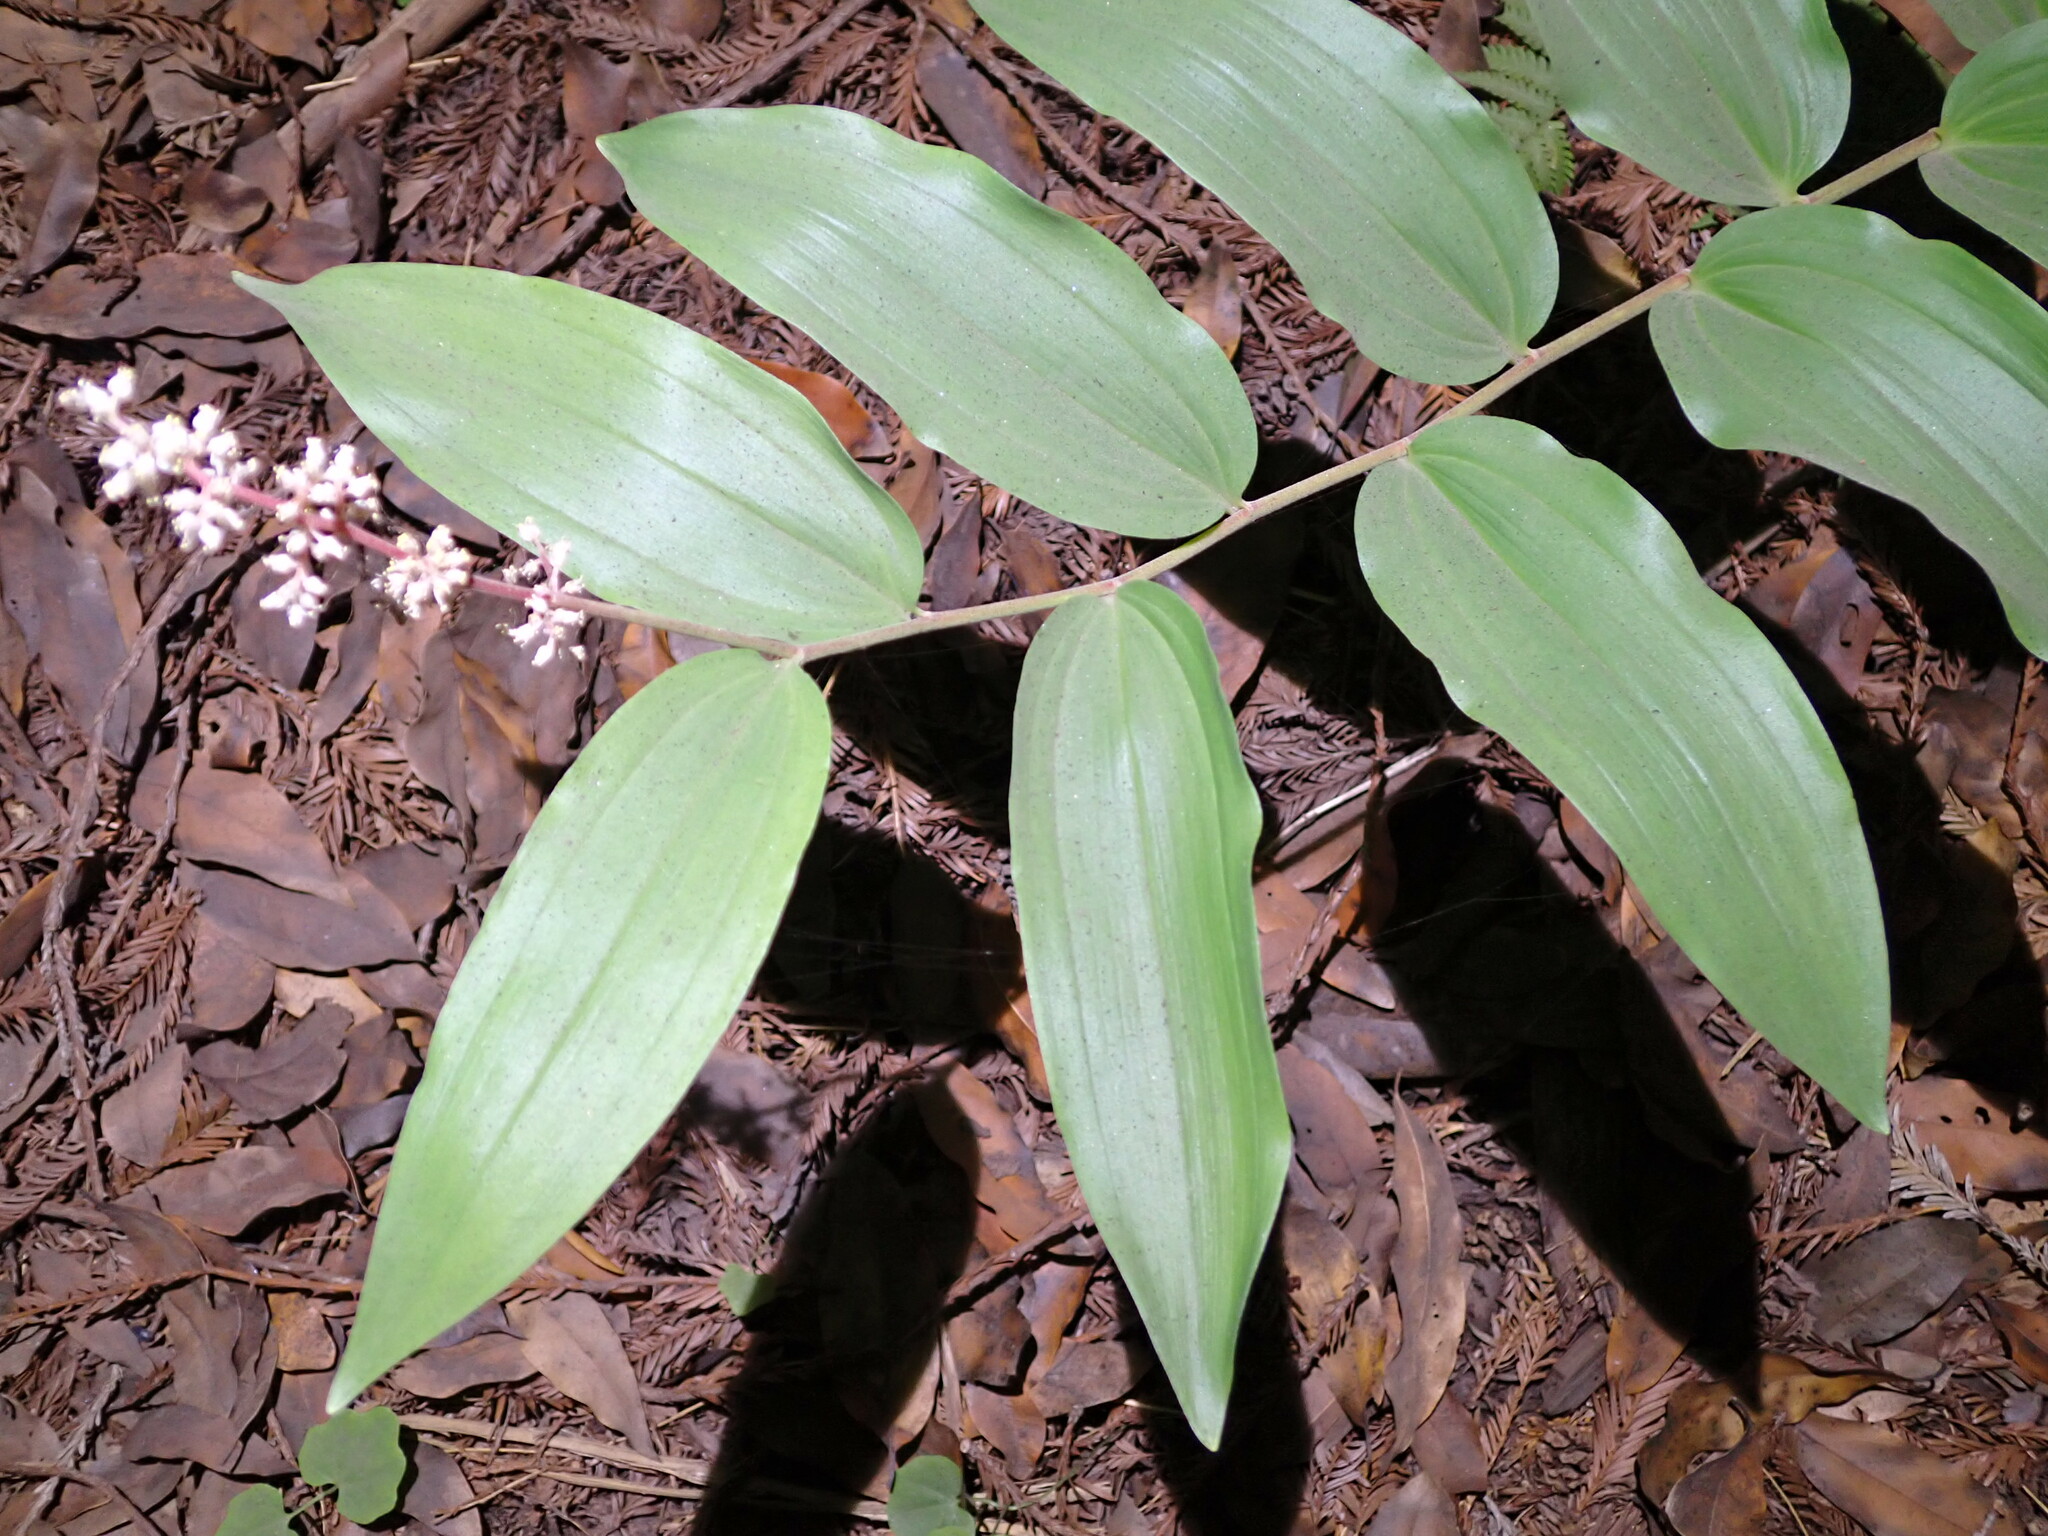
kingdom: Plantae
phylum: Tracheophyta
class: Liliopsida
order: Asparagales
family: Asparagaceae
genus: Maianthemum
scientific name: Maianthemum racemosum
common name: False spikenard
